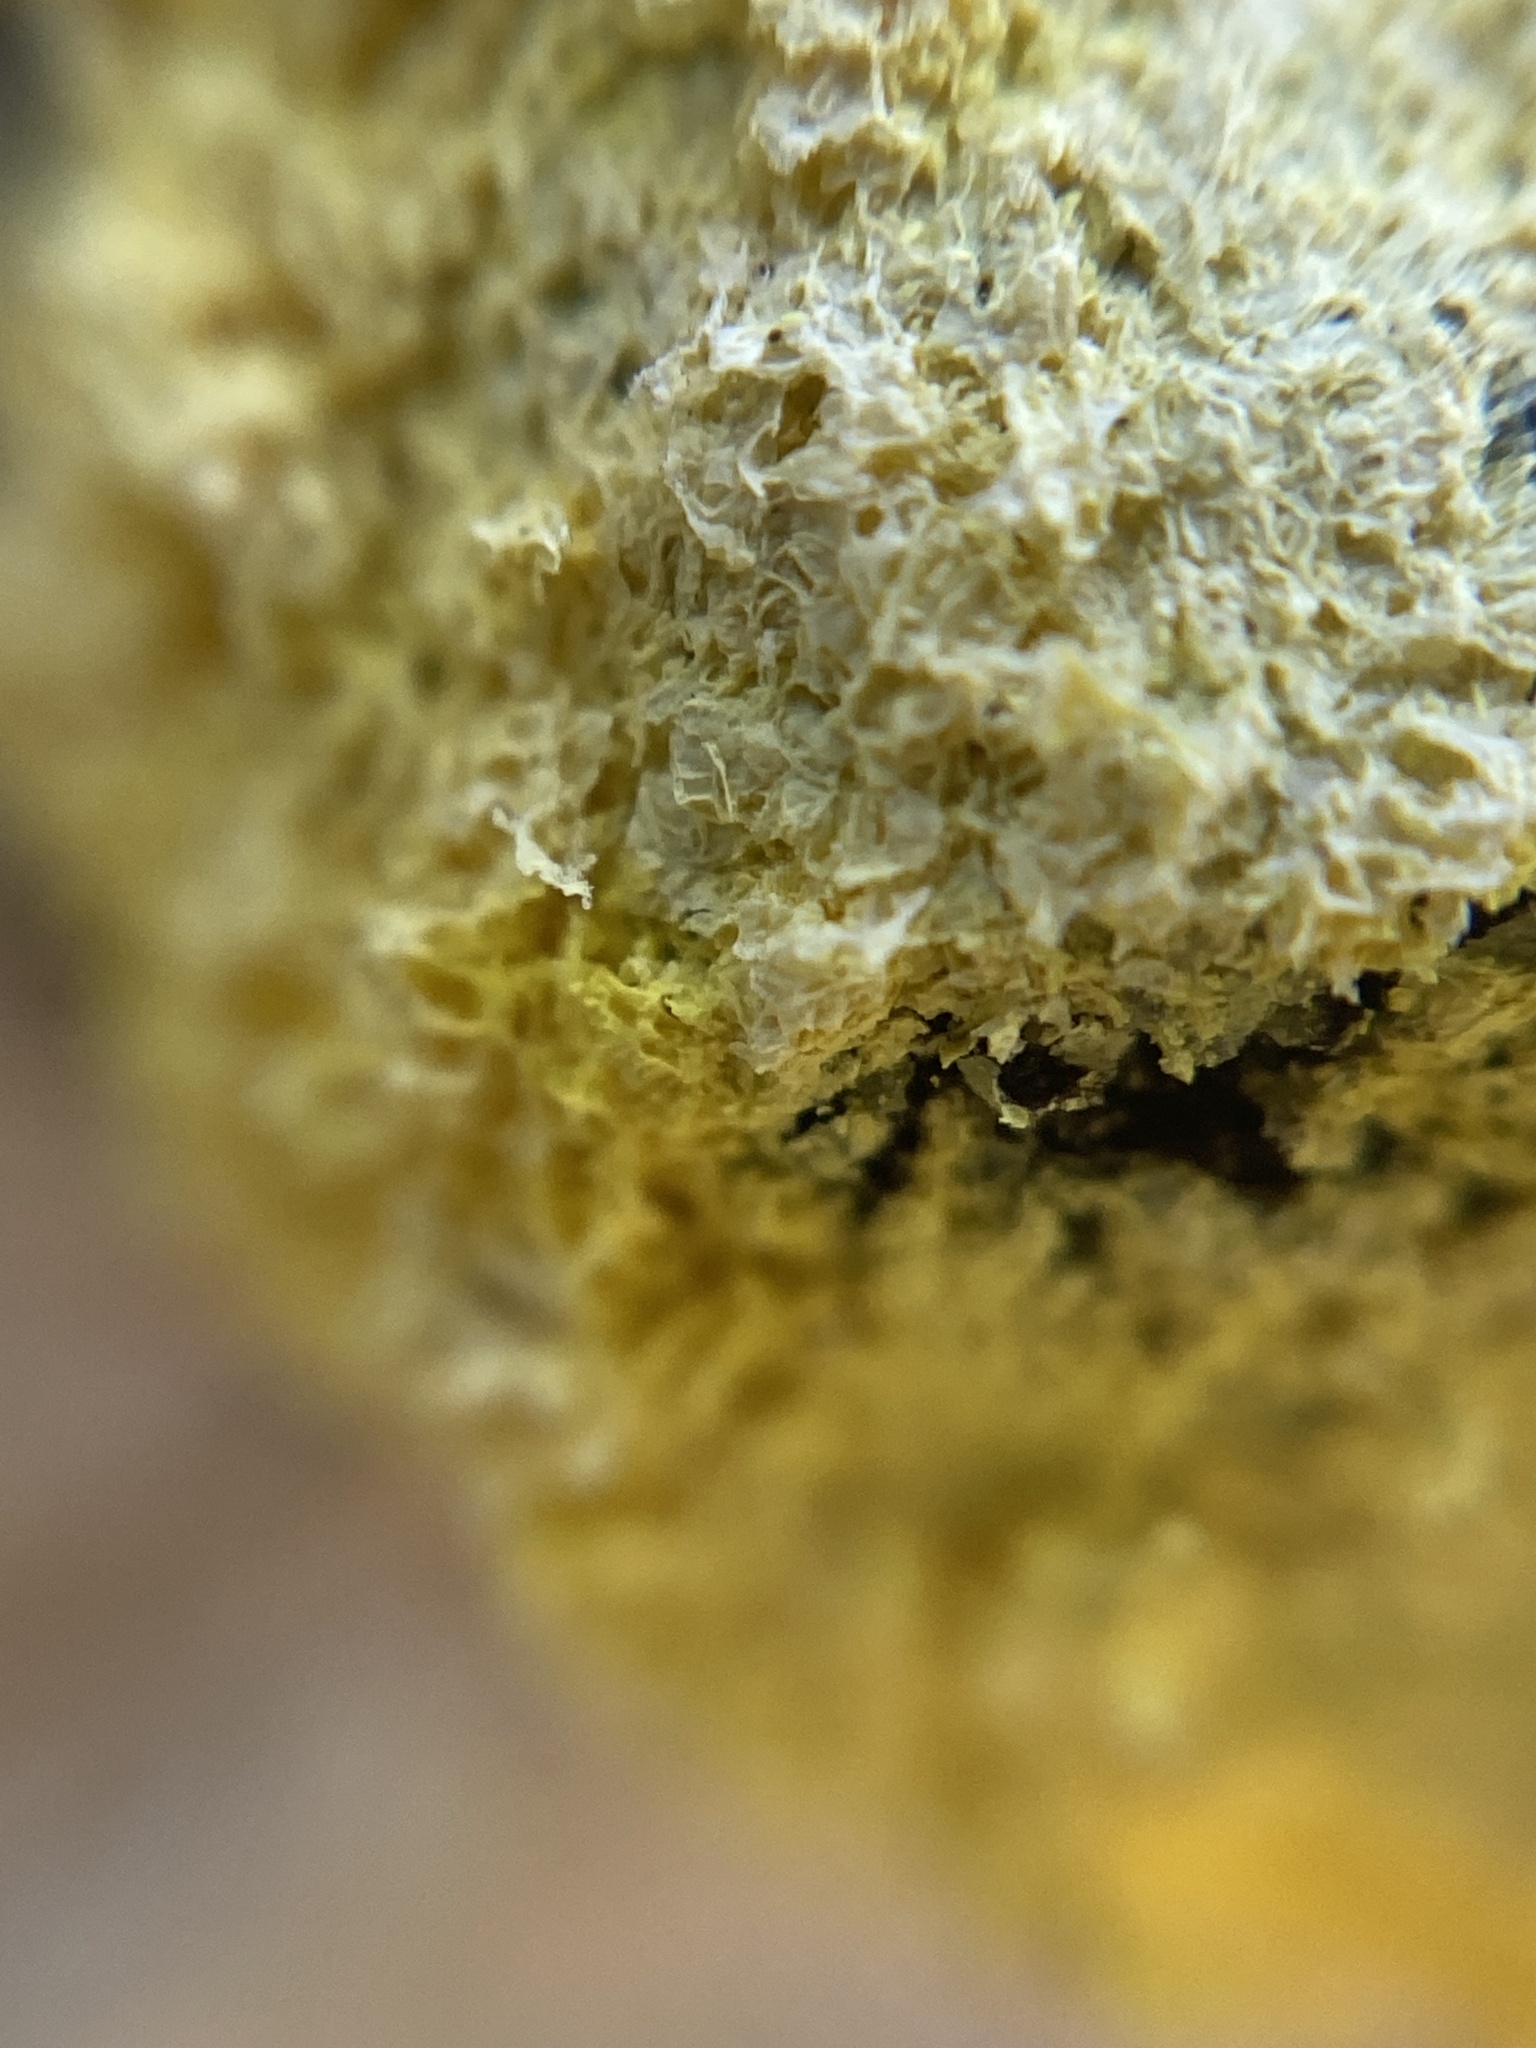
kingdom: Protozoa
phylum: Mycetozoa
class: Myxomycetes
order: Physarales
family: Physaraceae
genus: Fuligo
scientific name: Fuligo septica
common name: Dog vomit slime mold
